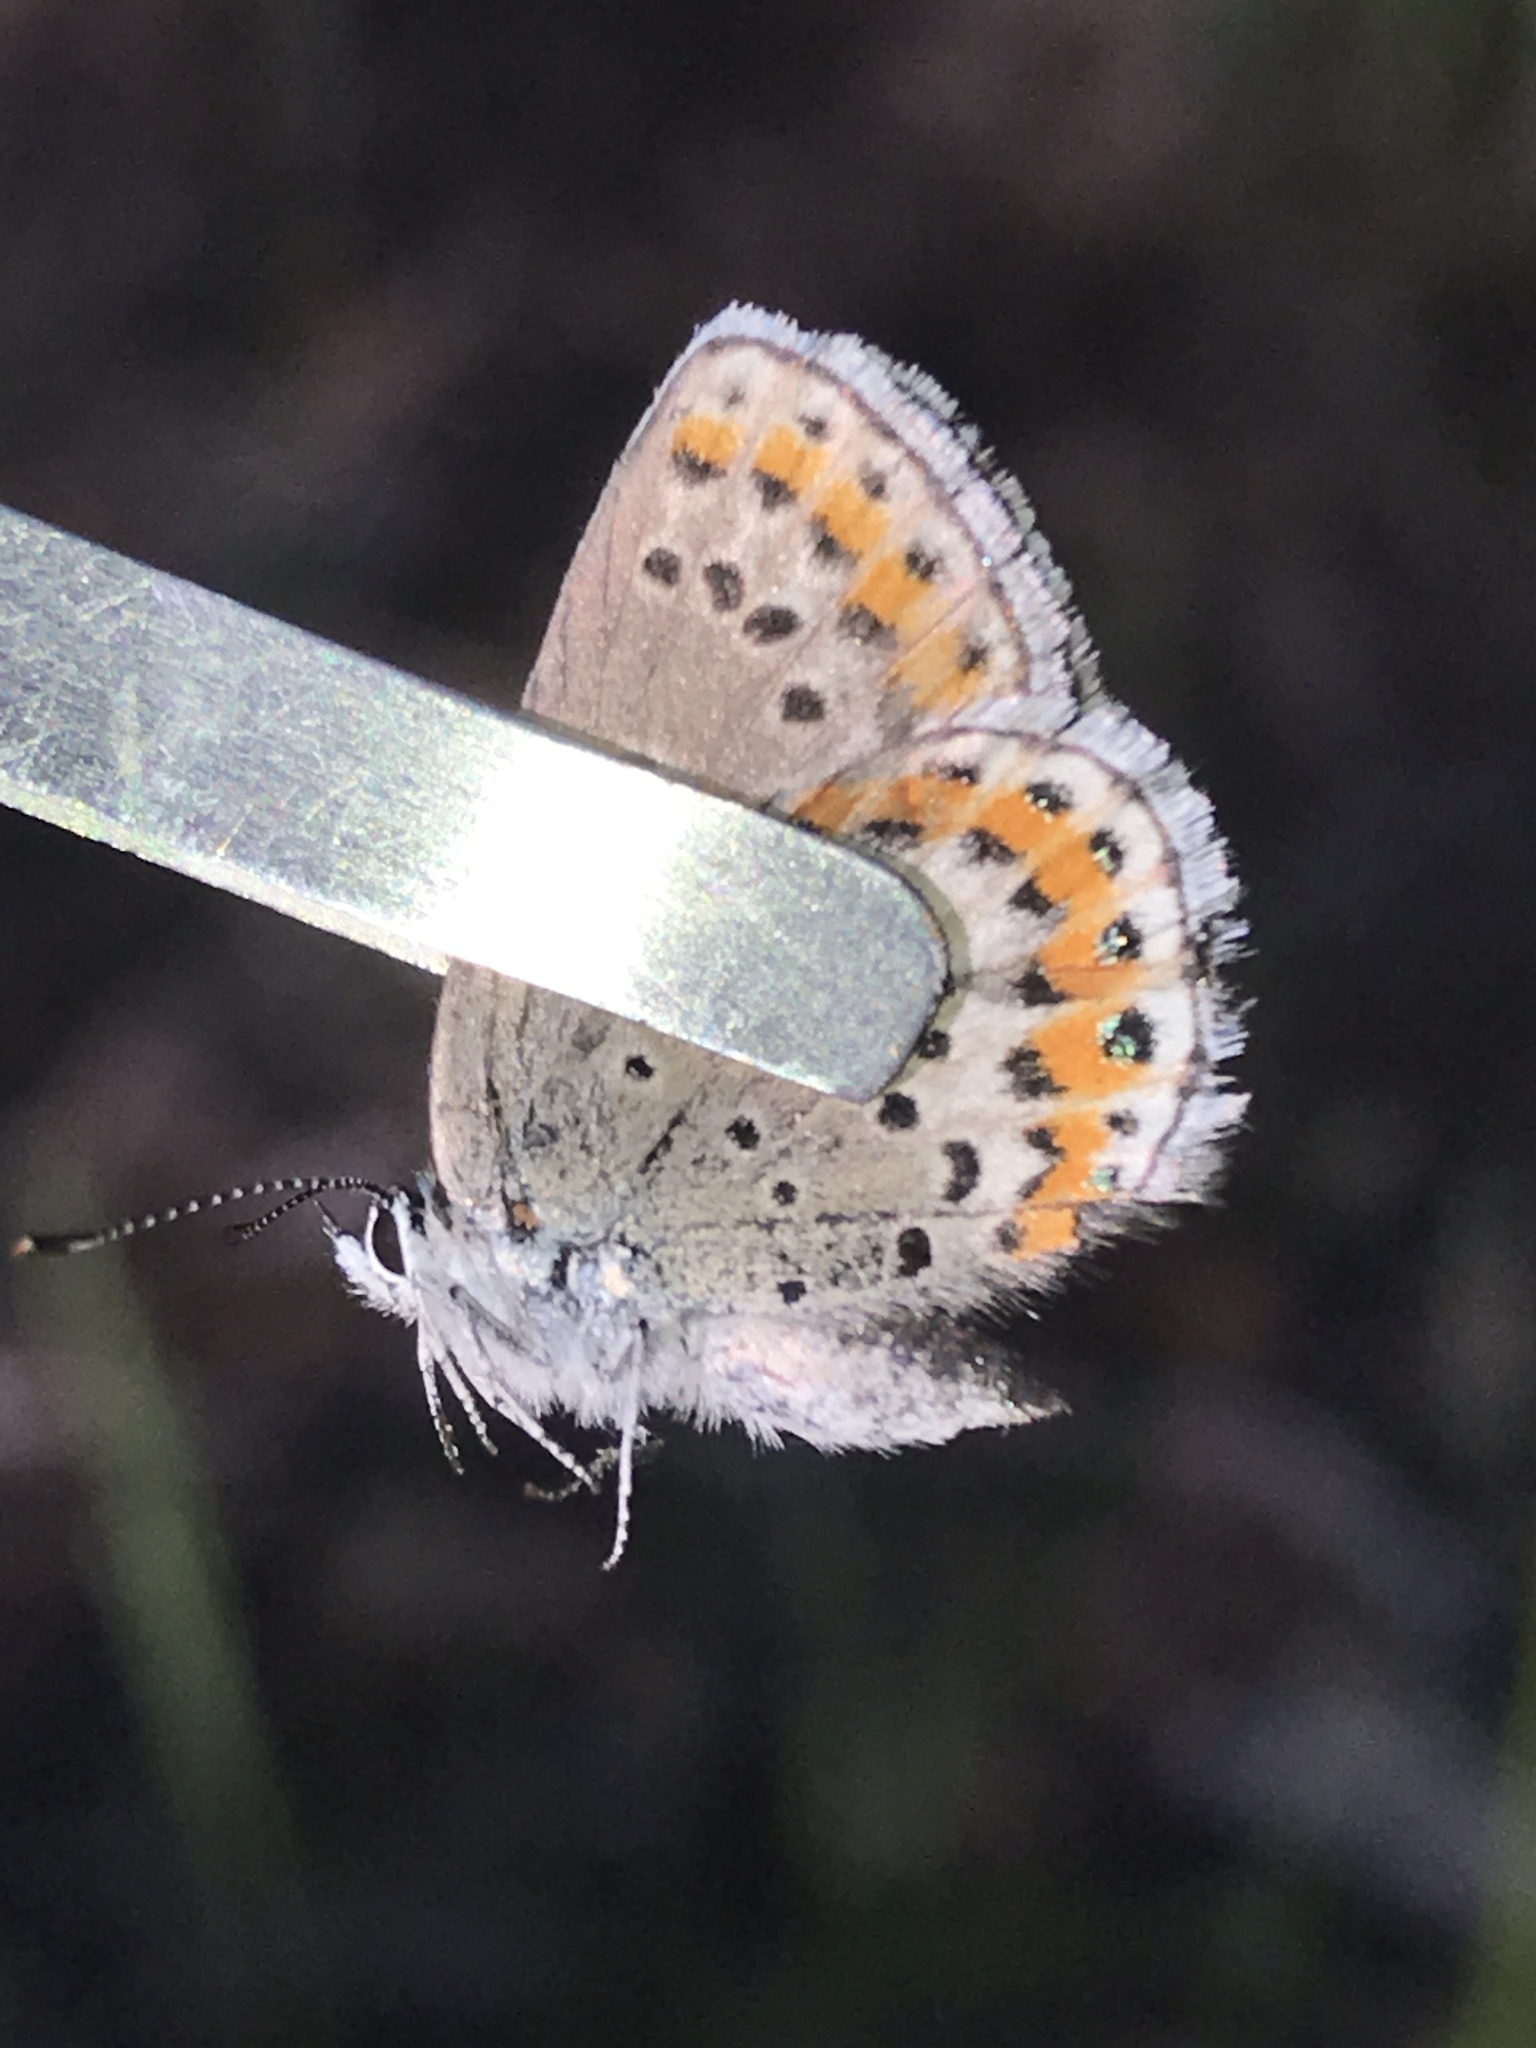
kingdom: Animalia
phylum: Arthropoda
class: Insecta
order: Lepidoptera
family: Lycaenidae
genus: Lycaeides
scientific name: Lycaeides melissa
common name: Melissa blue
